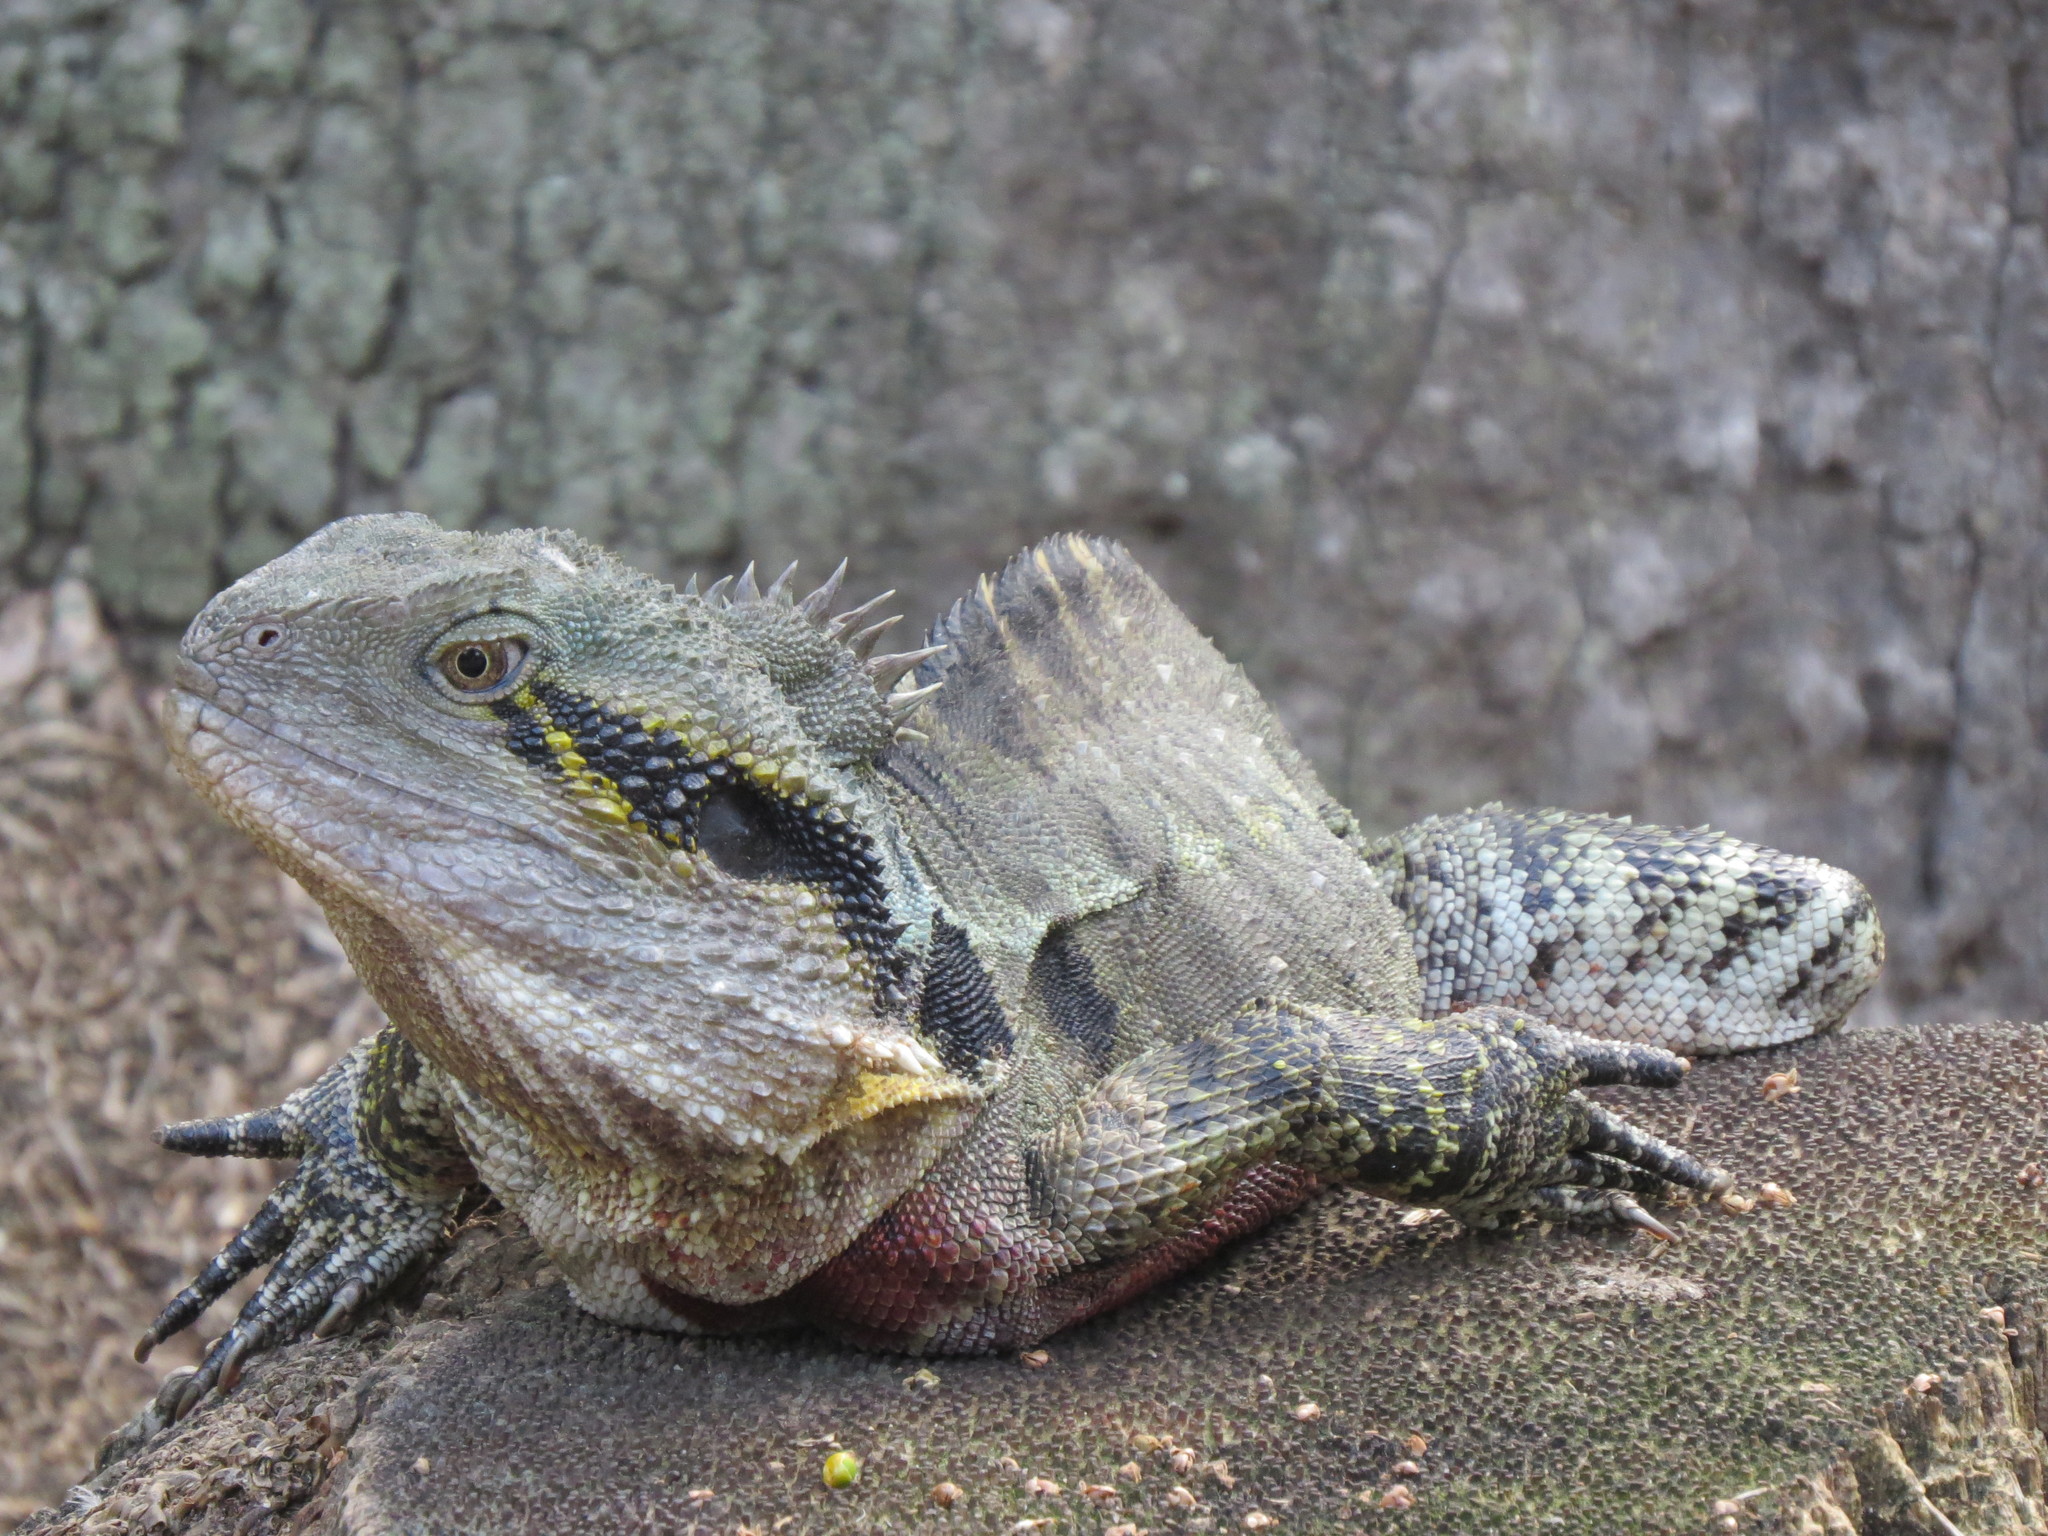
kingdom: Animalia
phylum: Chordata
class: Squamata
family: Agamidae
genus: Intellagama
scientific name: Intellagama lesueurii
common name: Eastern water dragon
